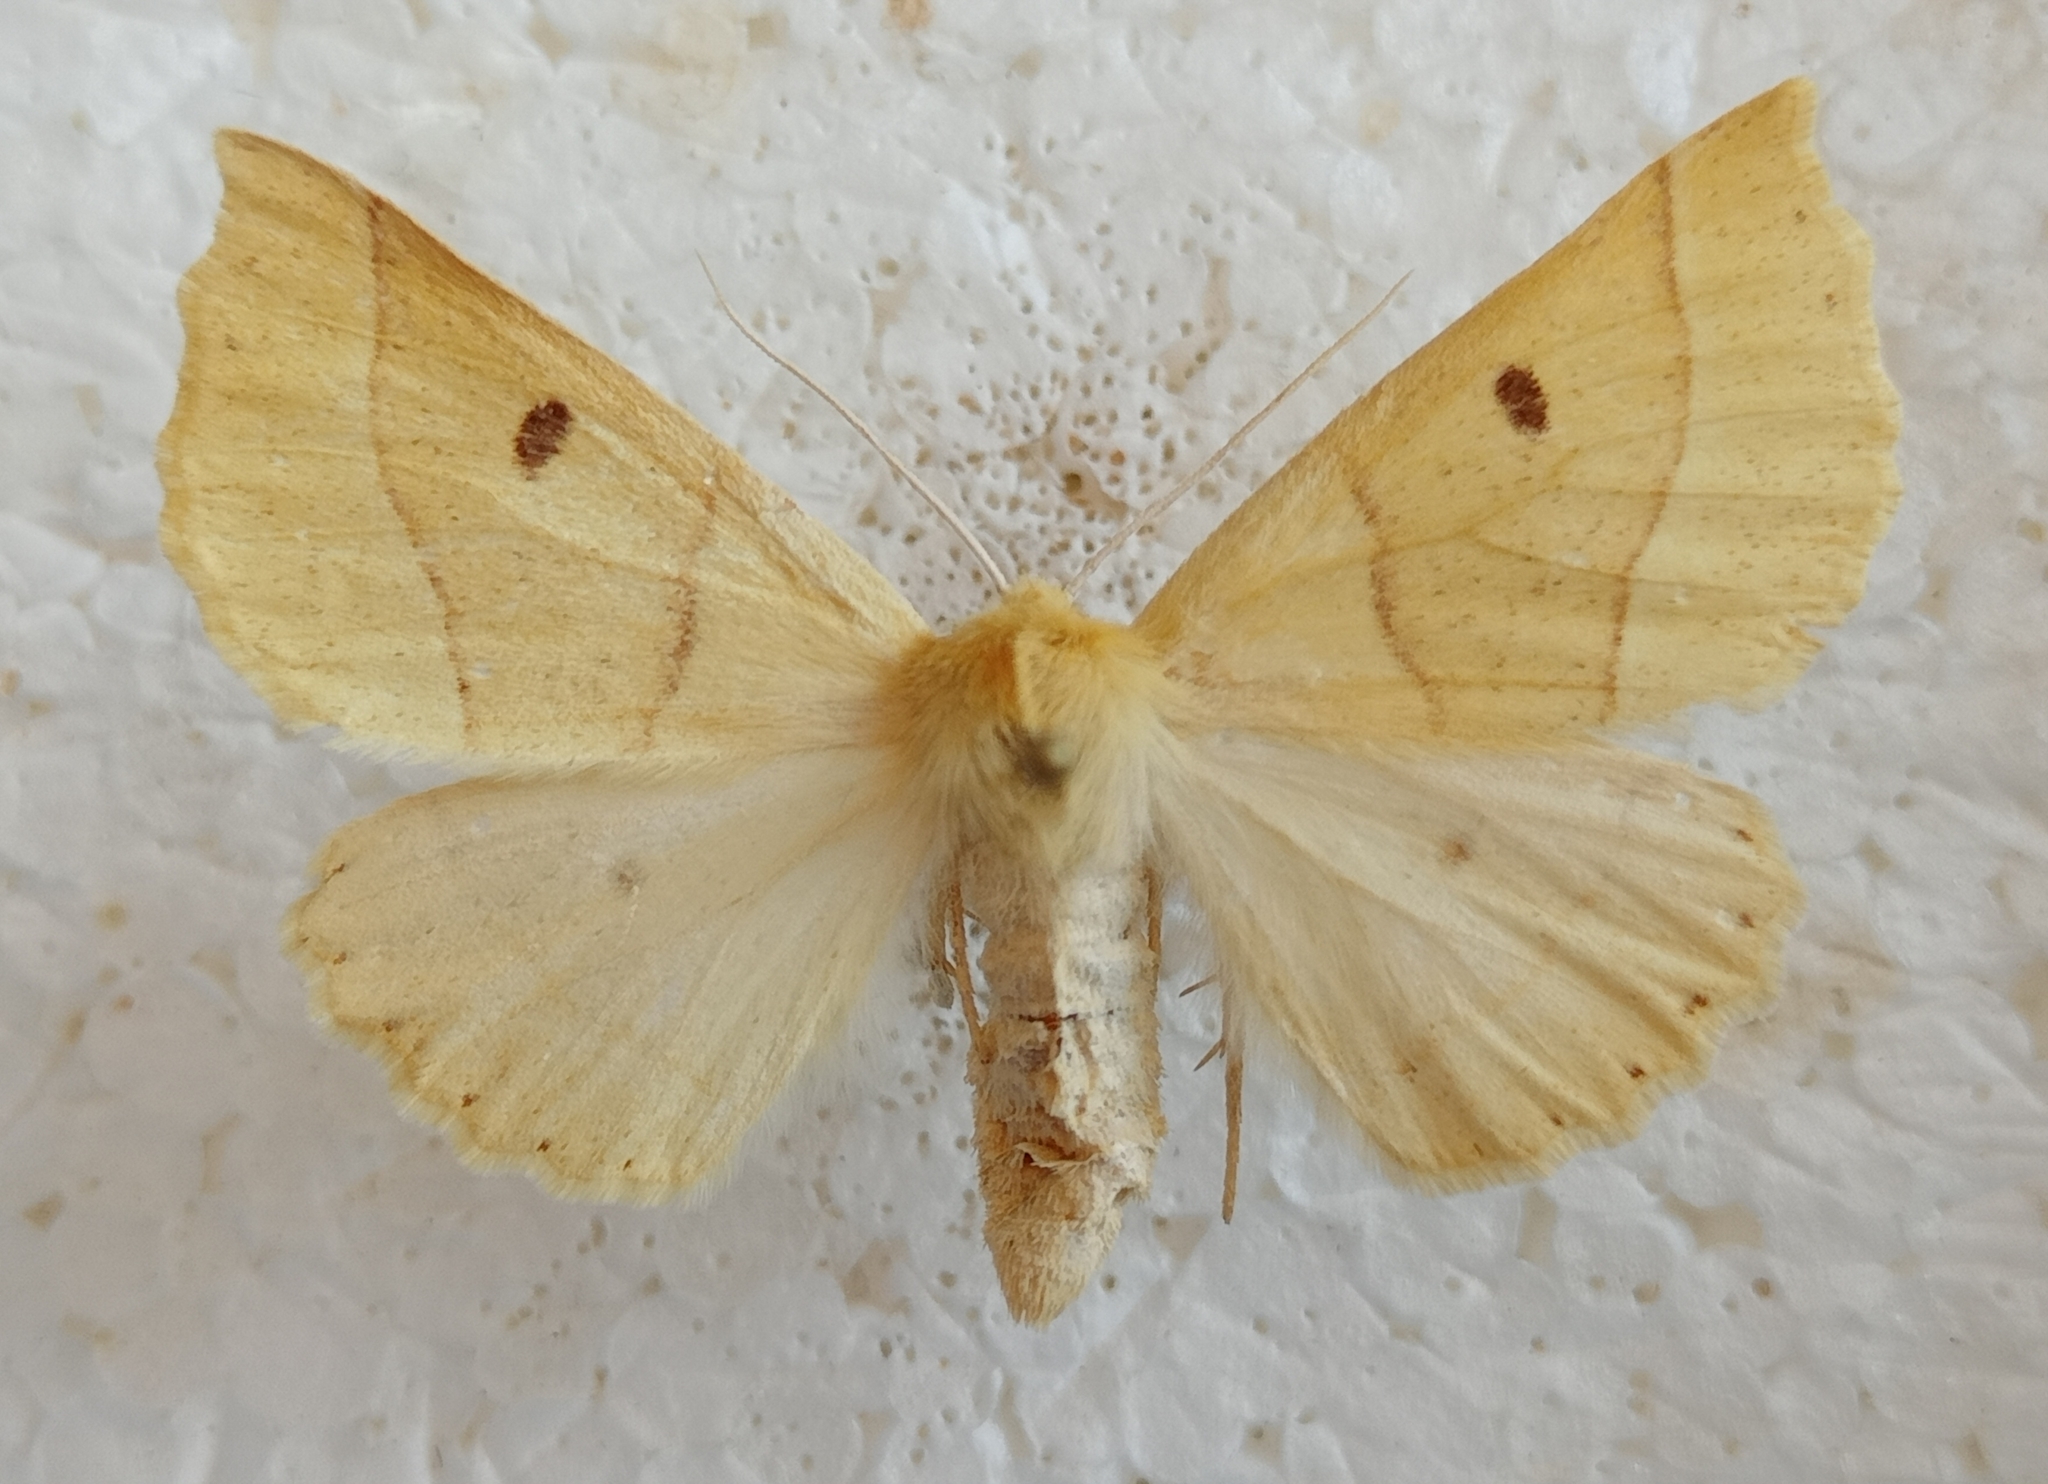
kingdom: Animalia
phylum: Arthropoda
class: Insecta
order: Lepidoptera
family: Geometridae
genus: Crocallis
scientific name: Crocallis elinguaria
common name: Scalloped oak
